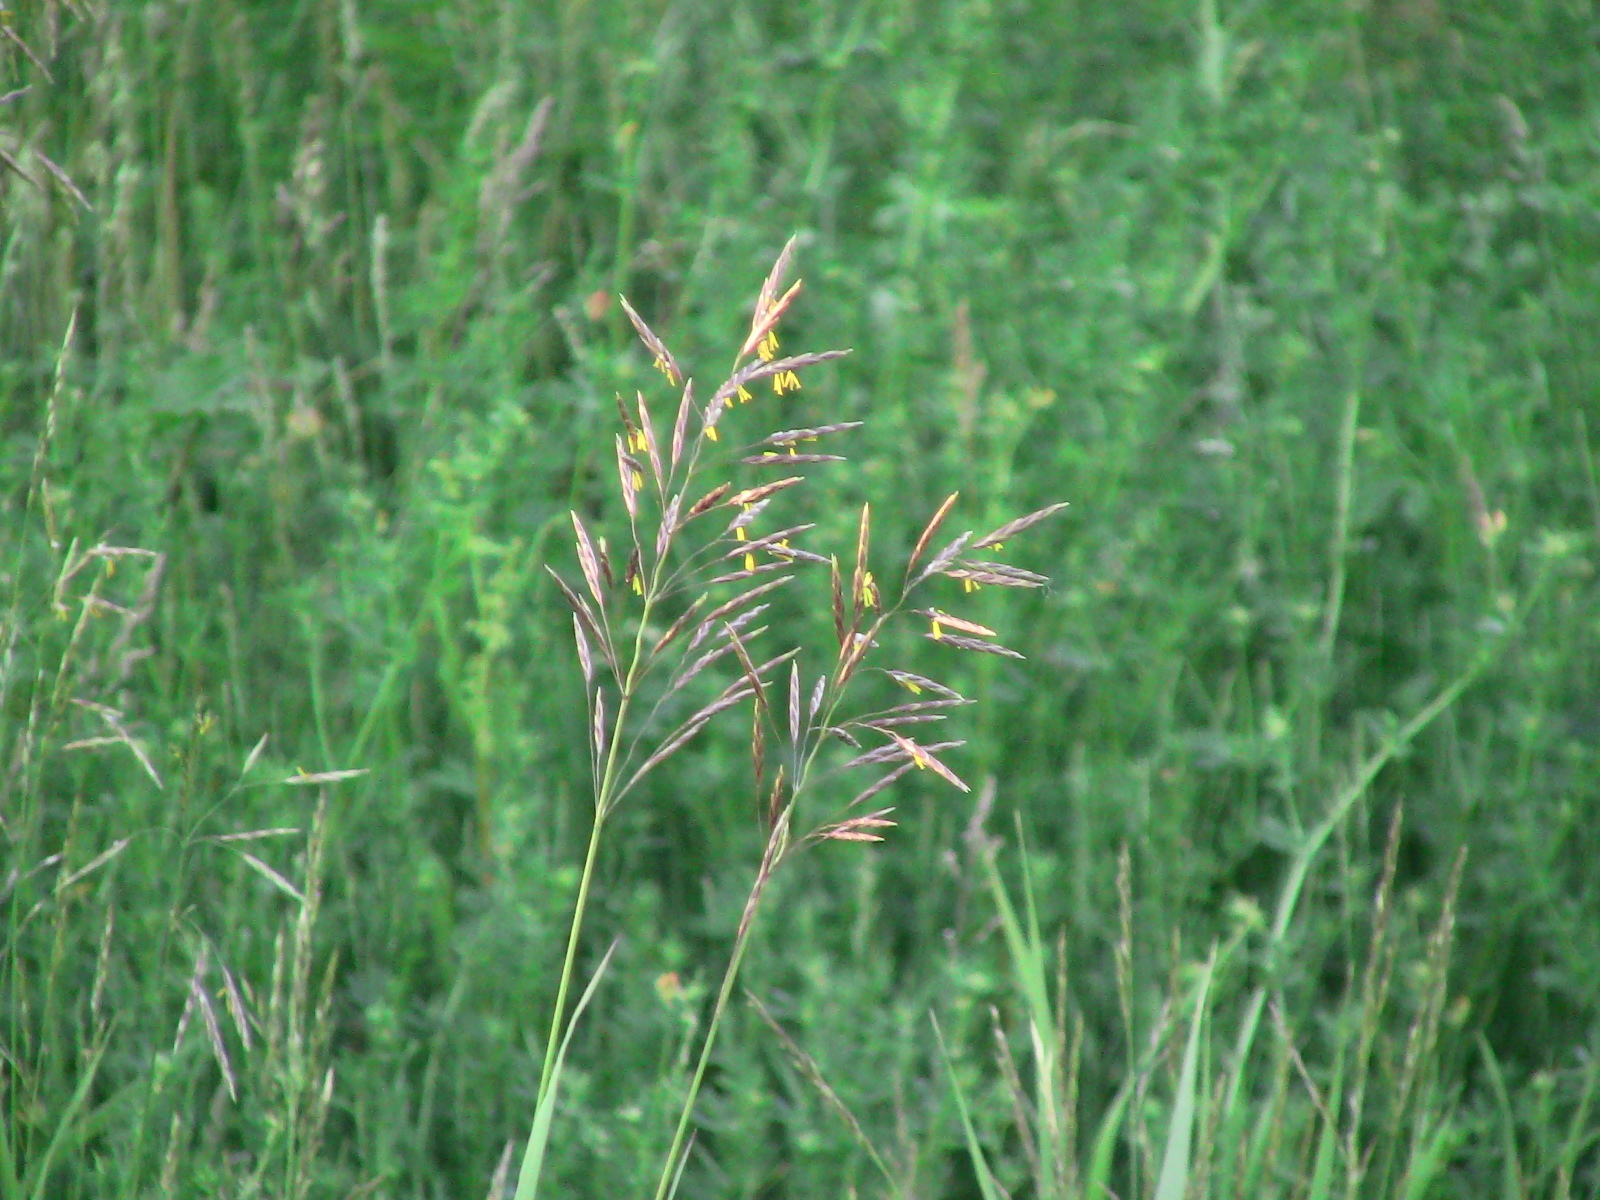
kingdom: Plantae
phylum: Tracheophyta
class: Liliopsida
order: Poales
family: Poaceae
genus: Bromus
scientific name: Bromus inermis
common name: Smooth brome
